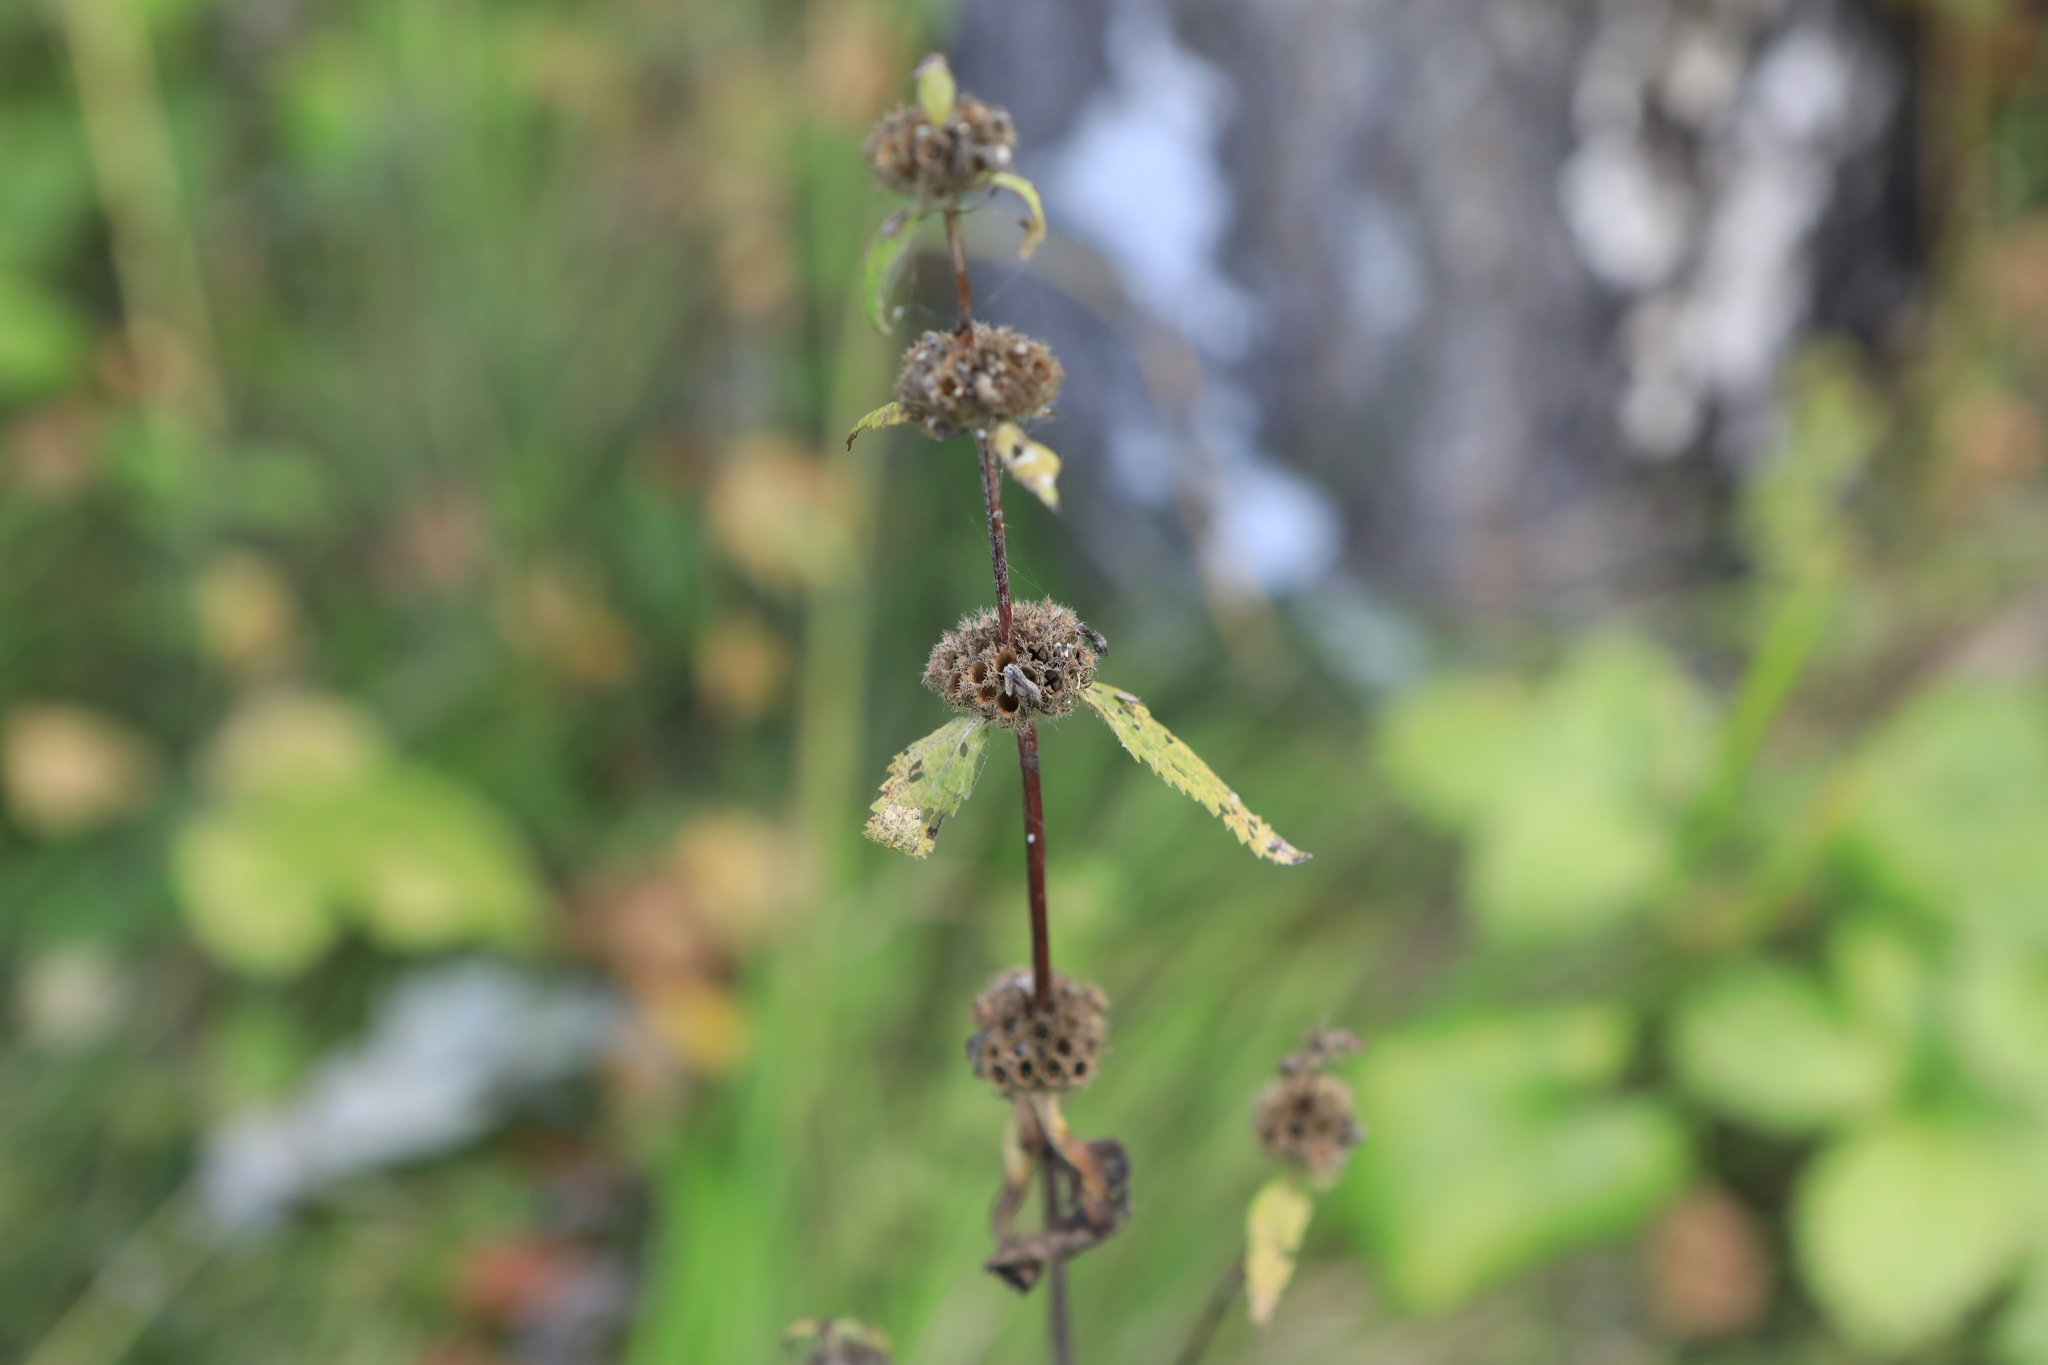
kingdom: Plantae
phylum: Tracheophyta
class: Magnoliopsida
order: Lamiales
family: Lamiaceae
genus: Phlomoides
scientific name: Phlomoides tuberosa
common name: Tuberous jerusalem sage
